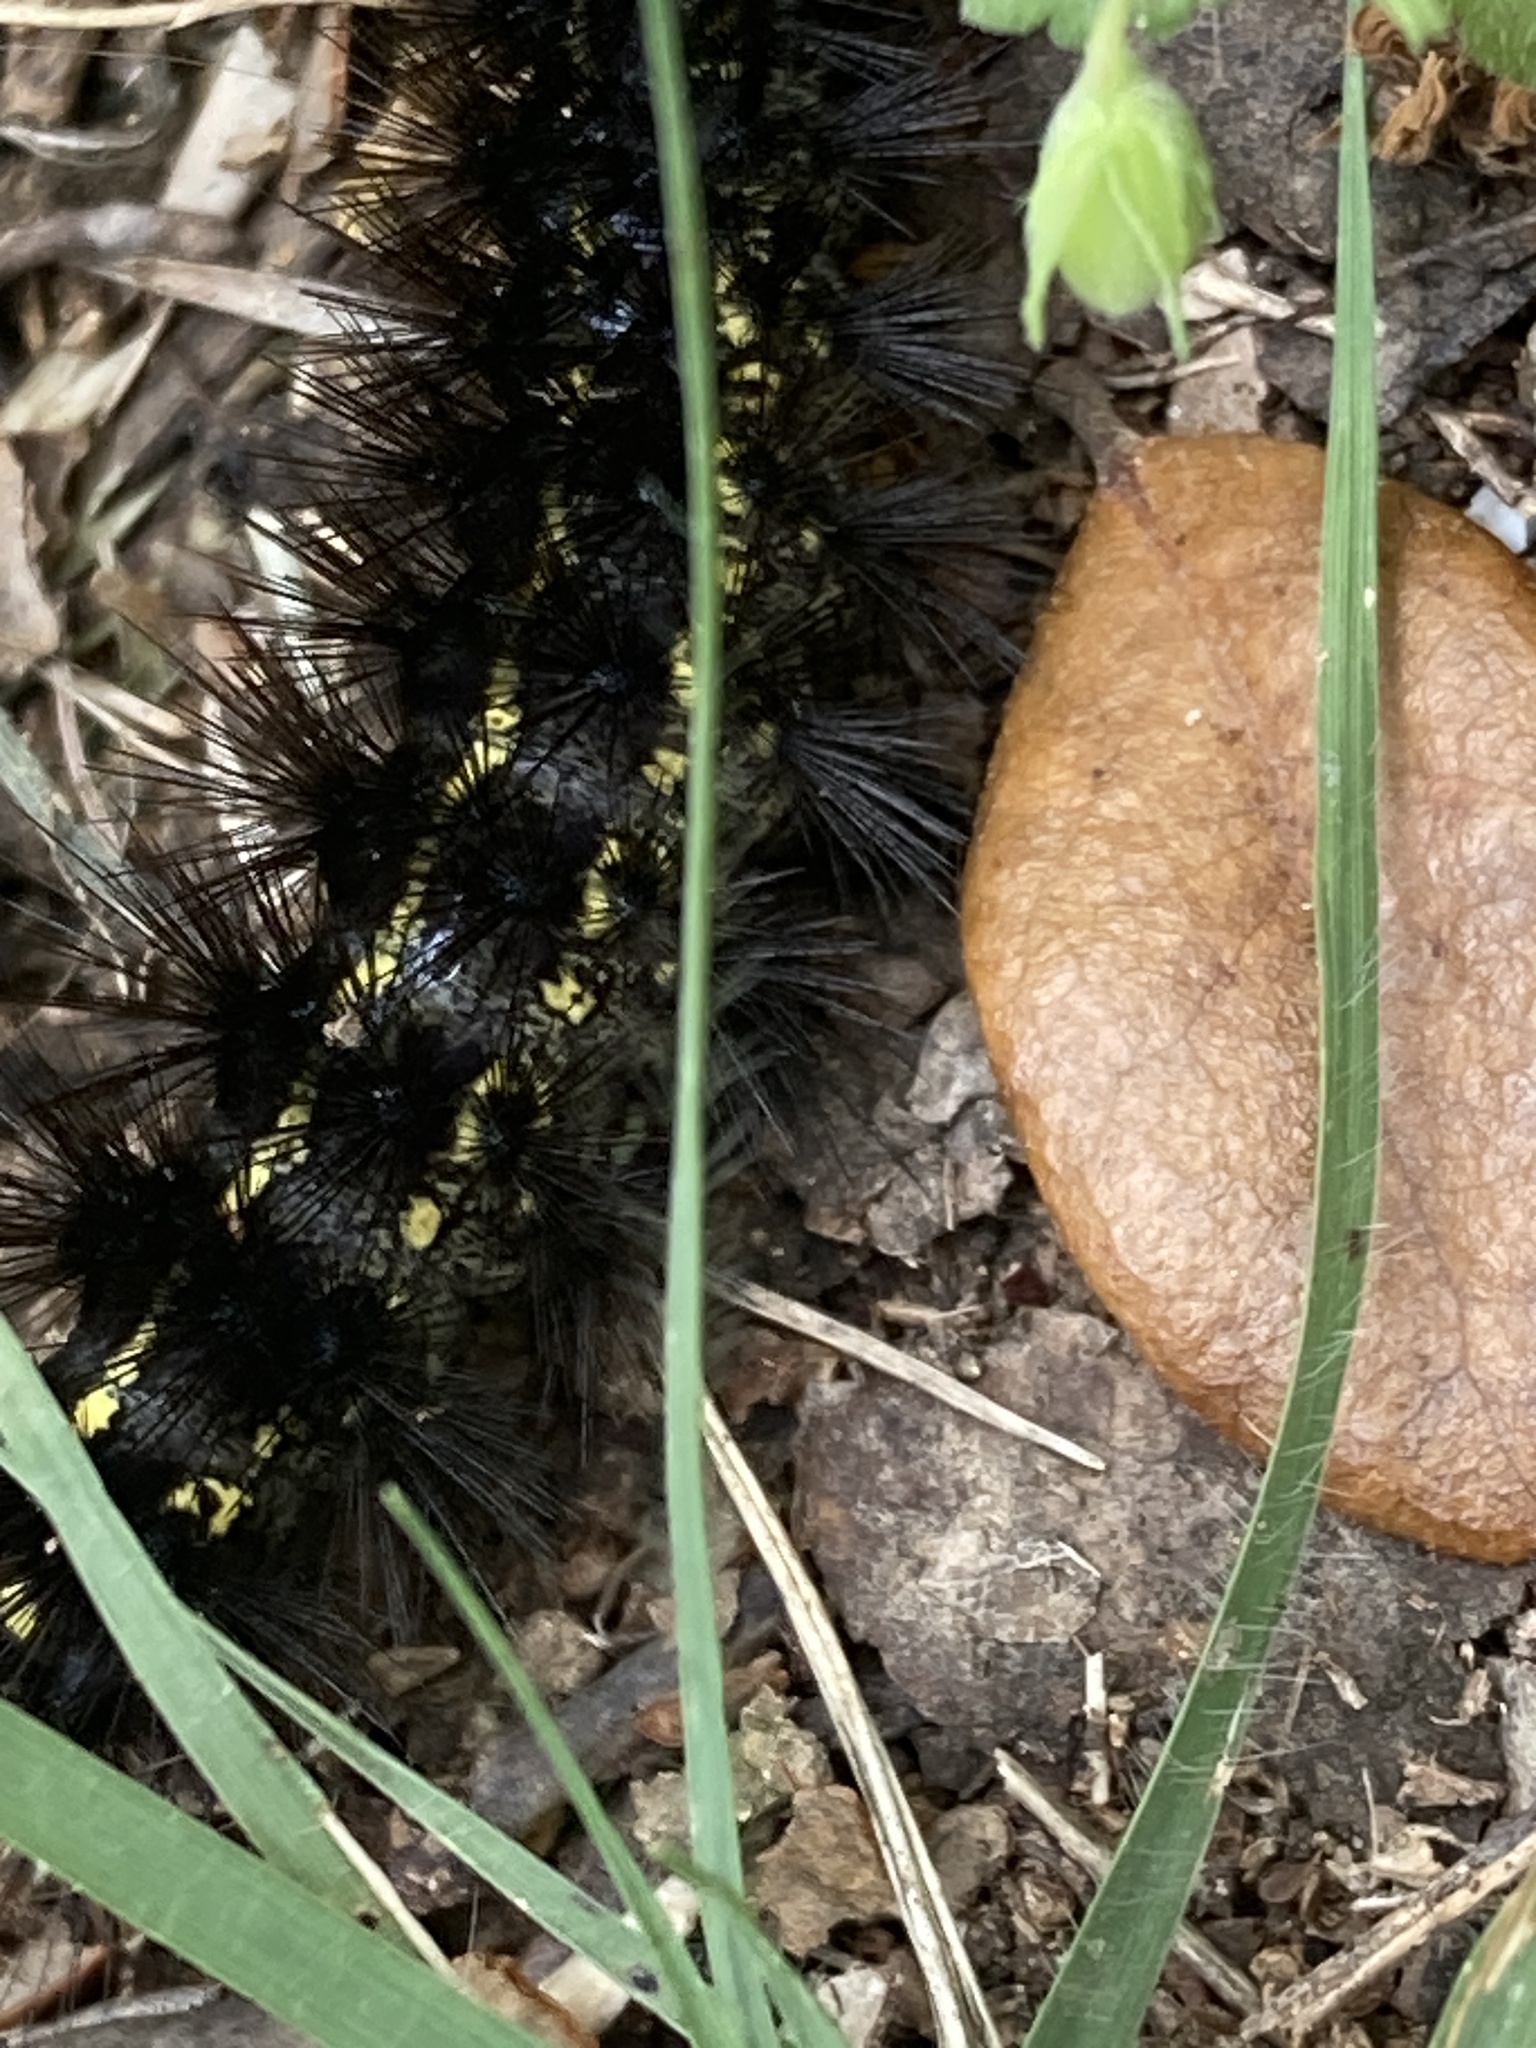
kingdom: Animalia
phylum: Arthropoda
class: Insecta
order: Lepidoptera
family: Erebidae
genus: Spilosoma
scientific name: Spilosoma dubia
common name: Dubious tiger moth
